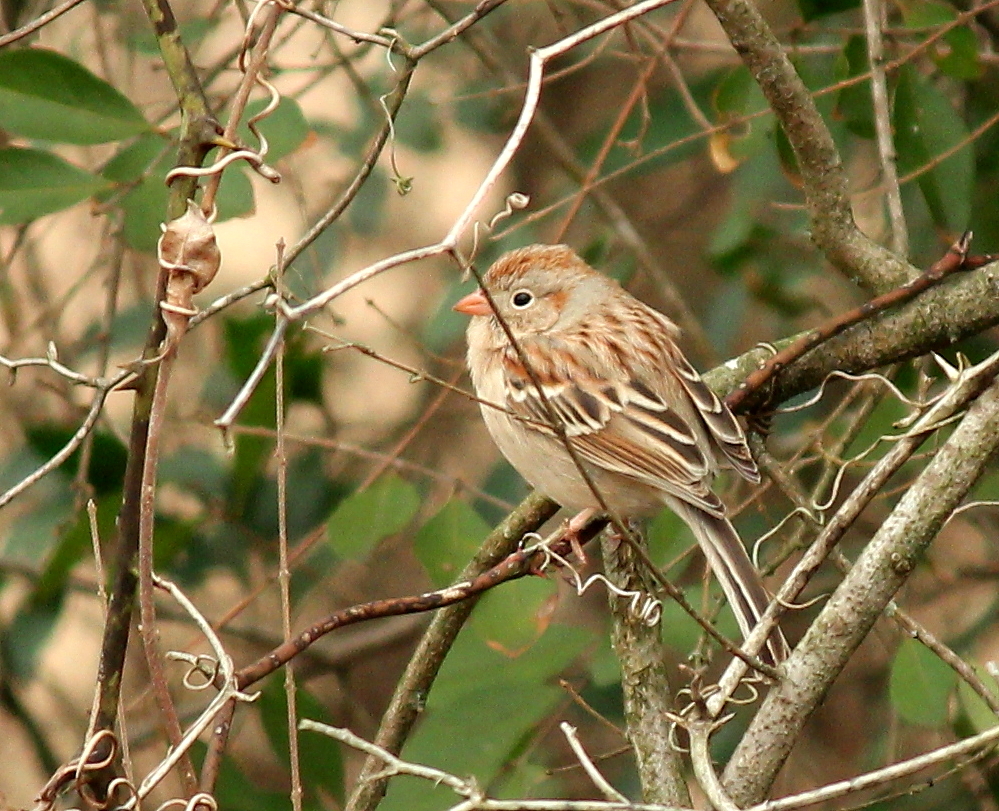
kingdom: Animalia
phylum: Chordata
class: Aves
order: Passeriformes
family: Passerellidae
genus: Spizella
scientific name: Spizella pusilla
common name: Field sparrow
